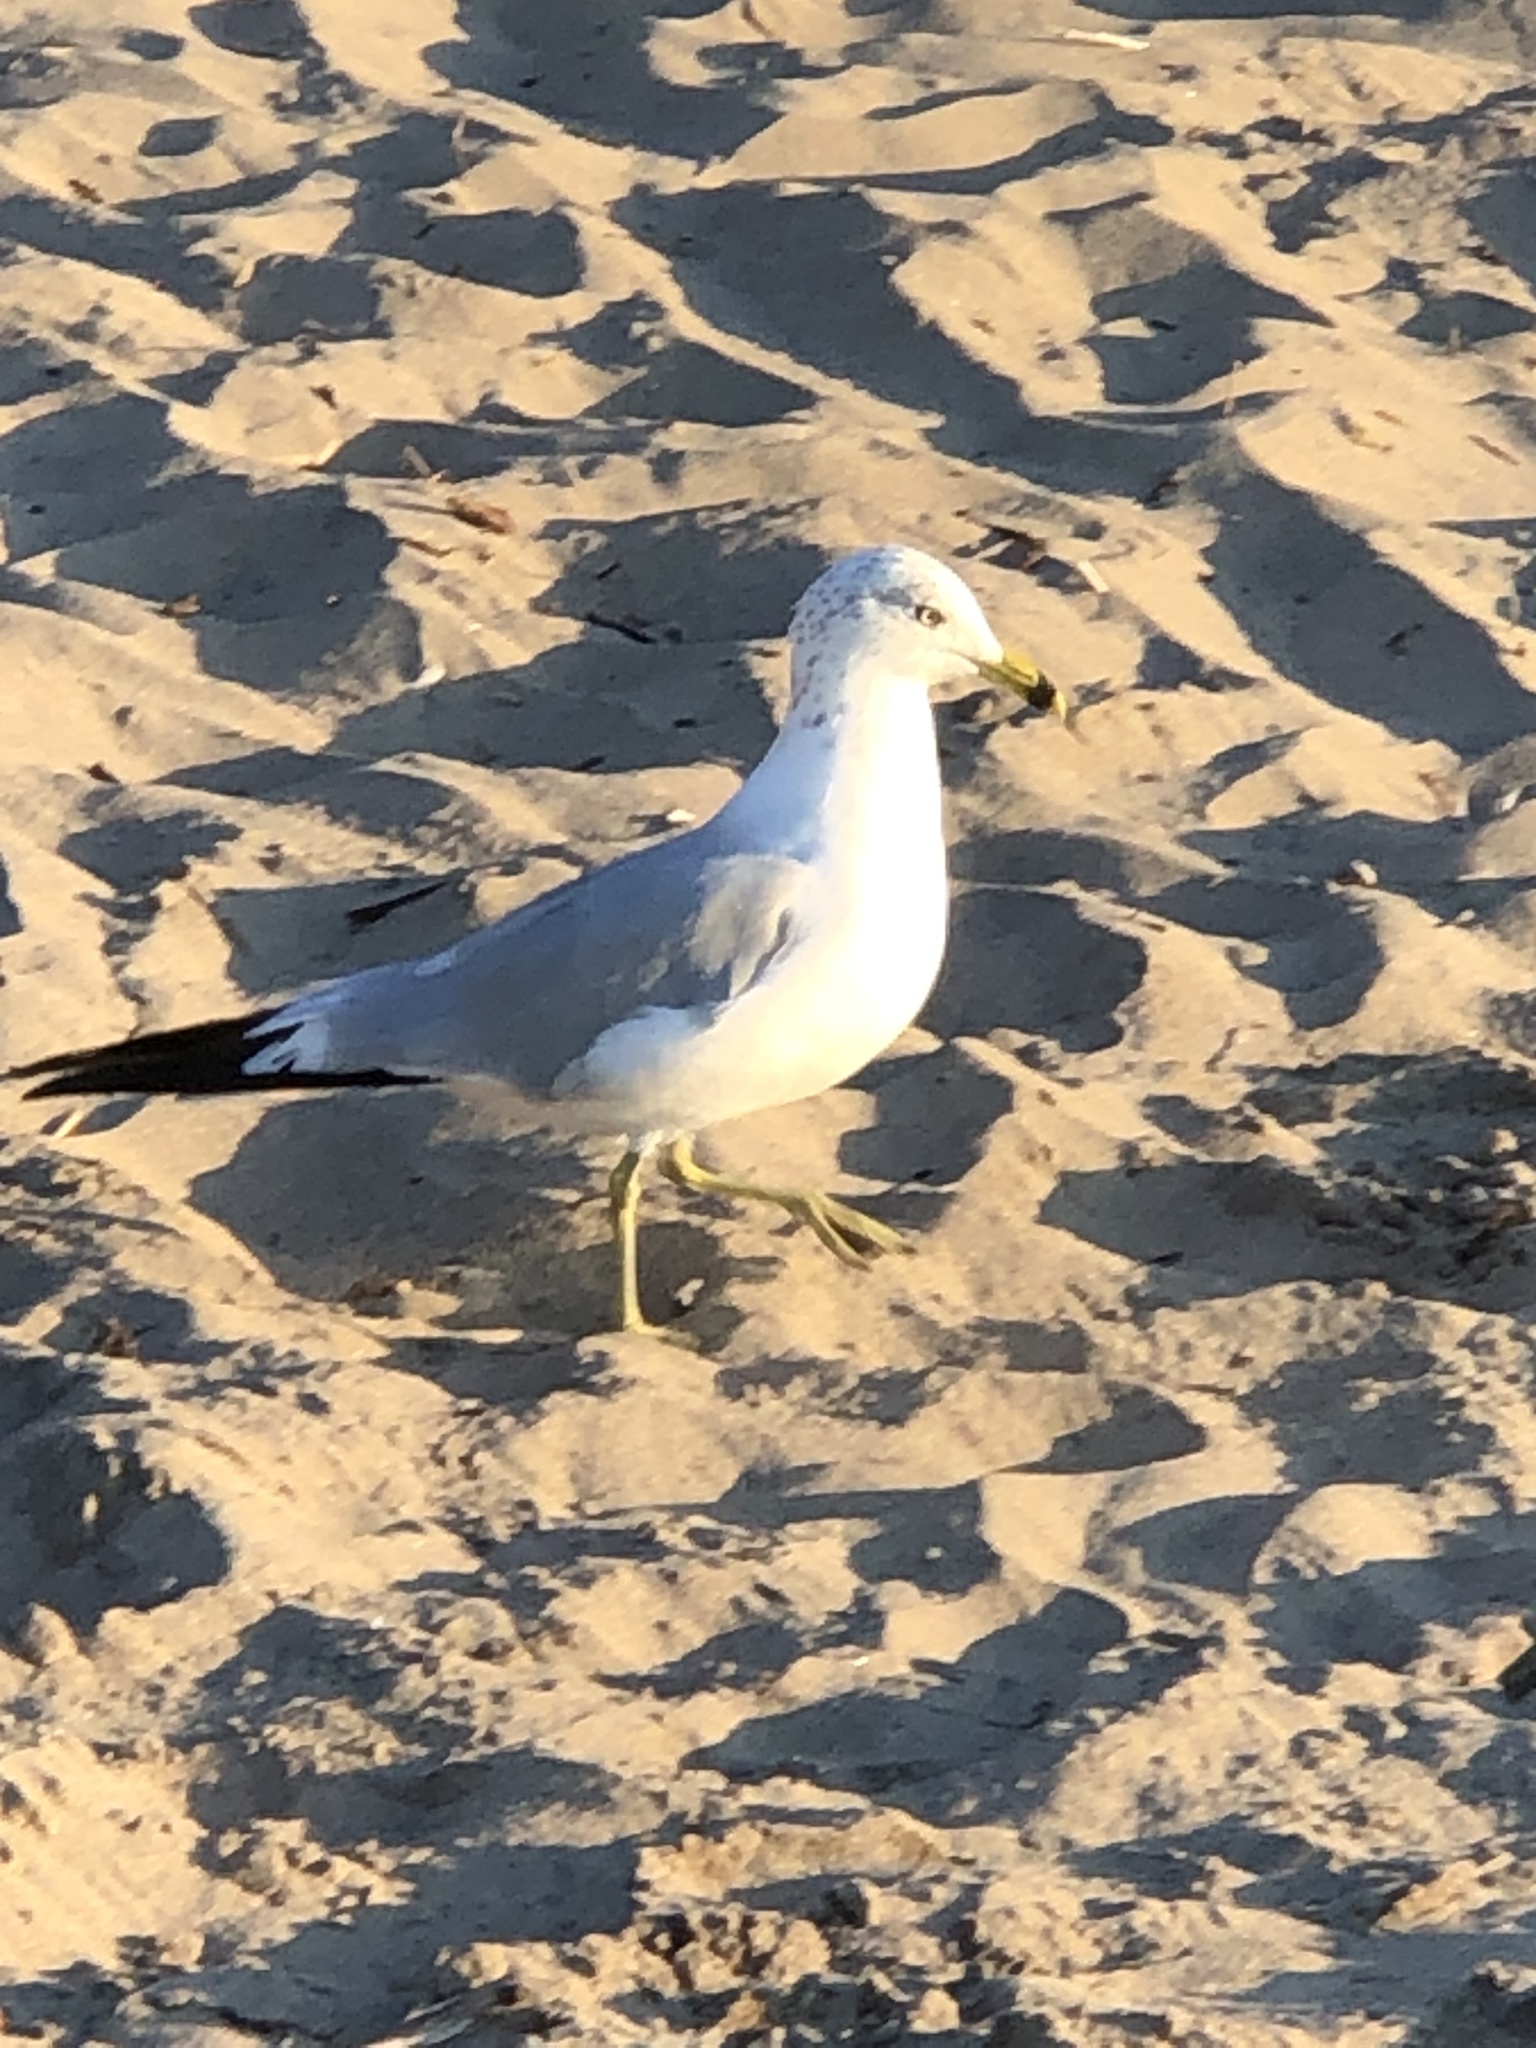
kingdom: Animalia
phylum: Chordata
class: Aves
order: Charadriiformes
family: Laridae
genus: Larus
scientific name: Larus delawarensis
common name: Ring-billed gull
